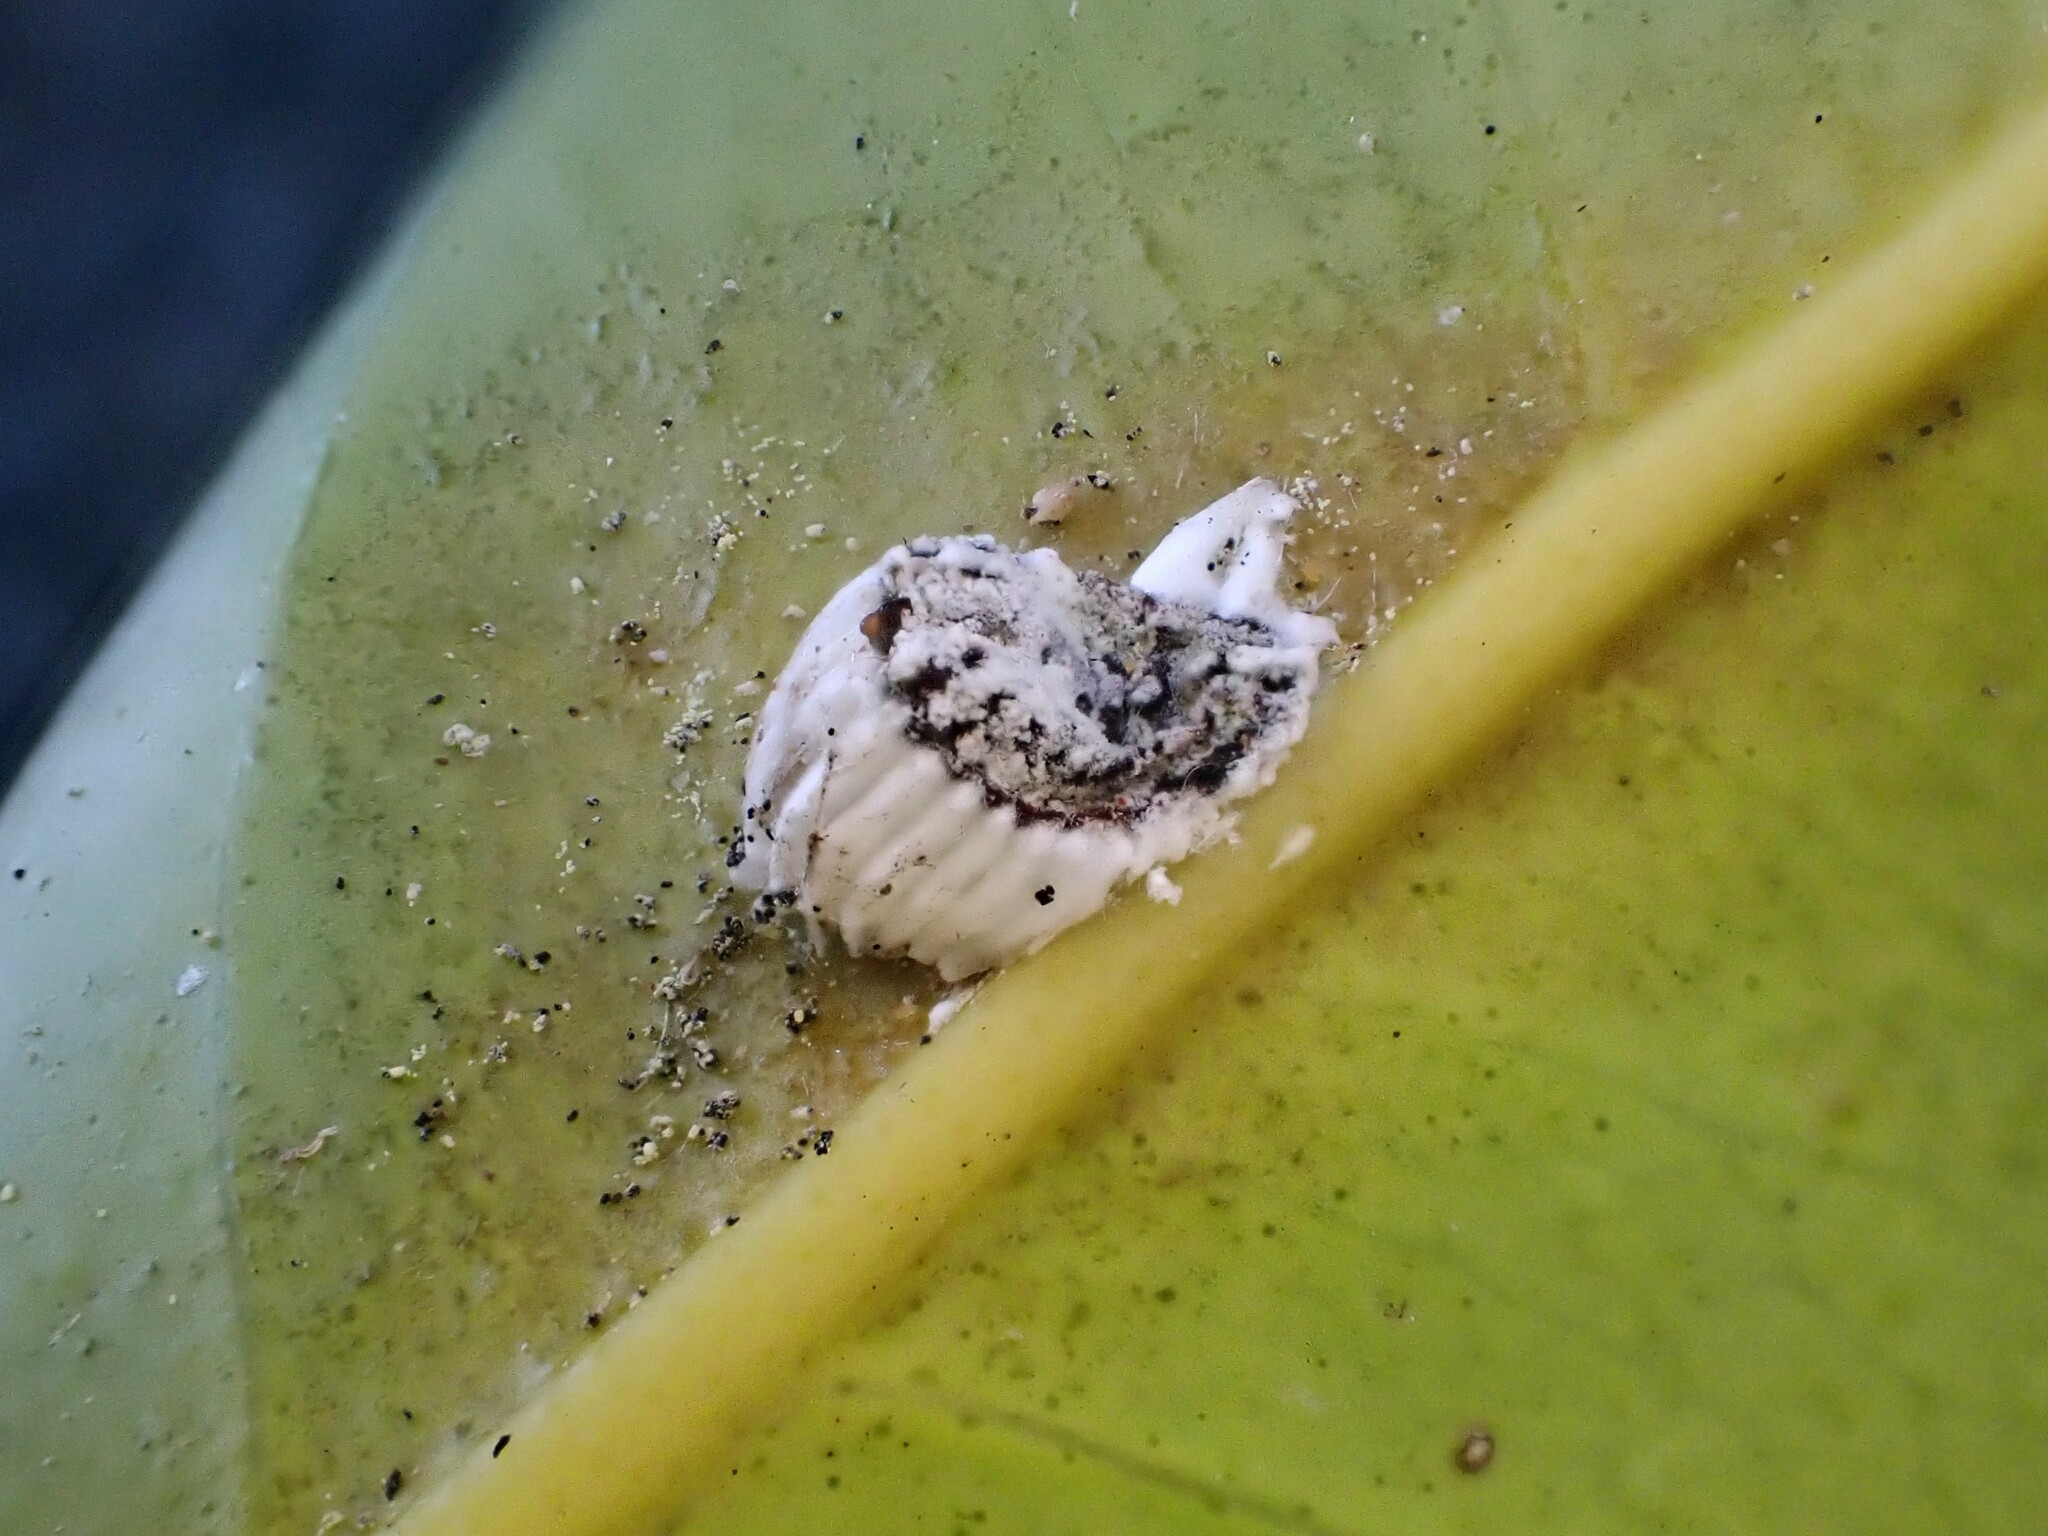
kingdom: Animalia
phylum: Arthropoda
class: Insecta
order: Hemiptera
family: Margarodidae
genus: Icerya
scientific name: Icerya purchasi
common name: Cottony cushion scale
